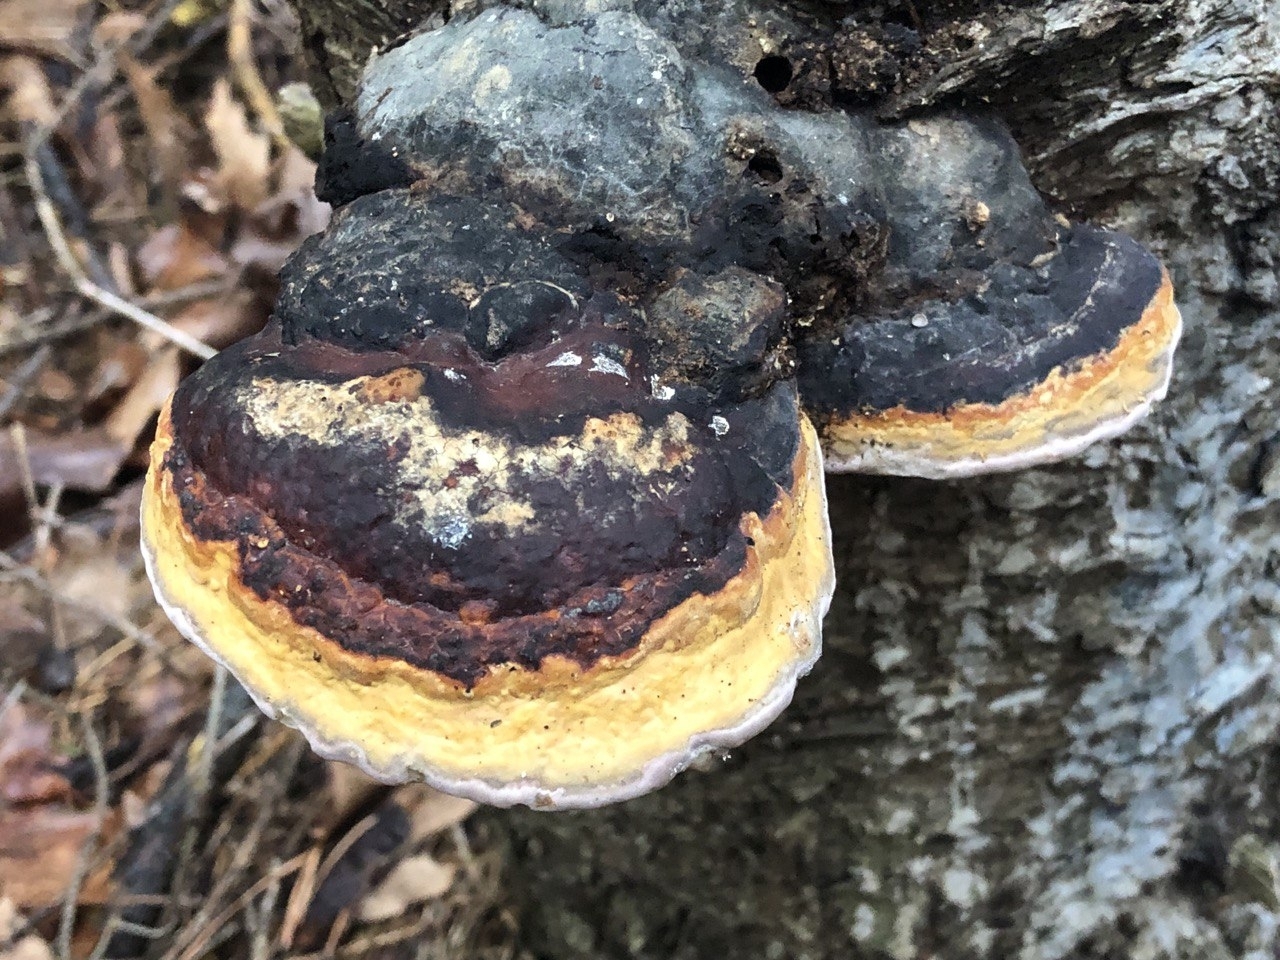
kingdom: Fungi
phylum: Basidiomycota
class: Agaricomycetes
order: Polyporales
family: Fomitopsidaceae
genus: Fomitopsis
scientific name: Fomitopsis pinicola
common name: Red-belted bracket
